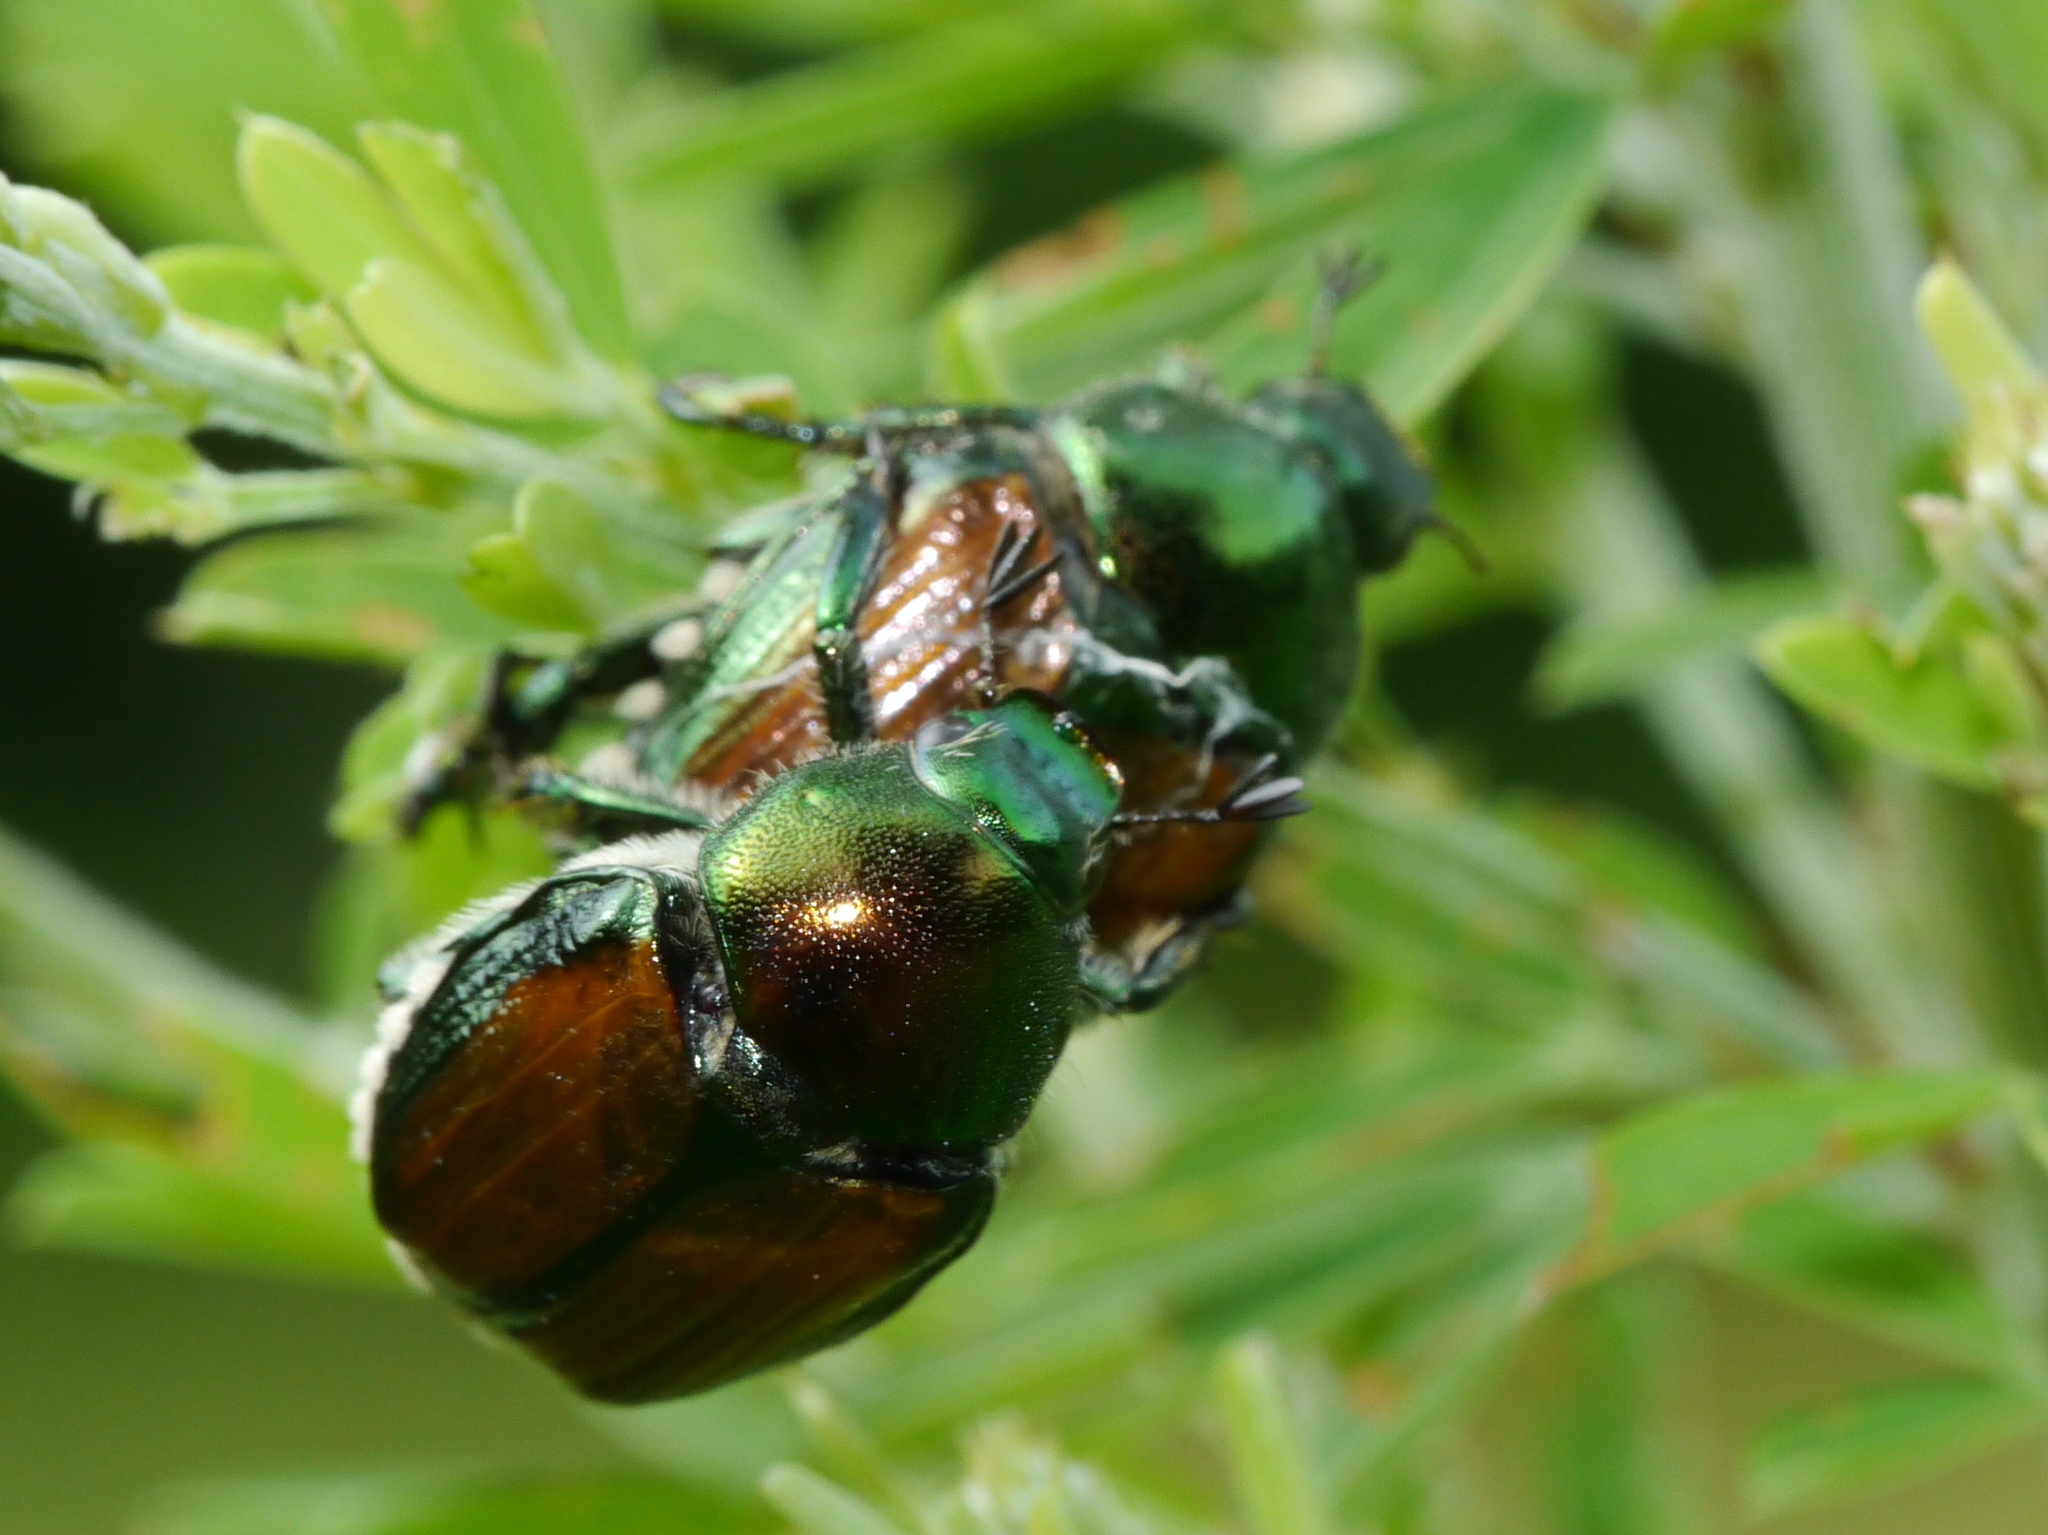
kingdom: Animalia
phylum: Arthropoda
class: Insecta
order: Coleoptera
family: Scarabaeidae
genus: Popillia
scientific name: Popillia japonica
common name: Japanese beetle
